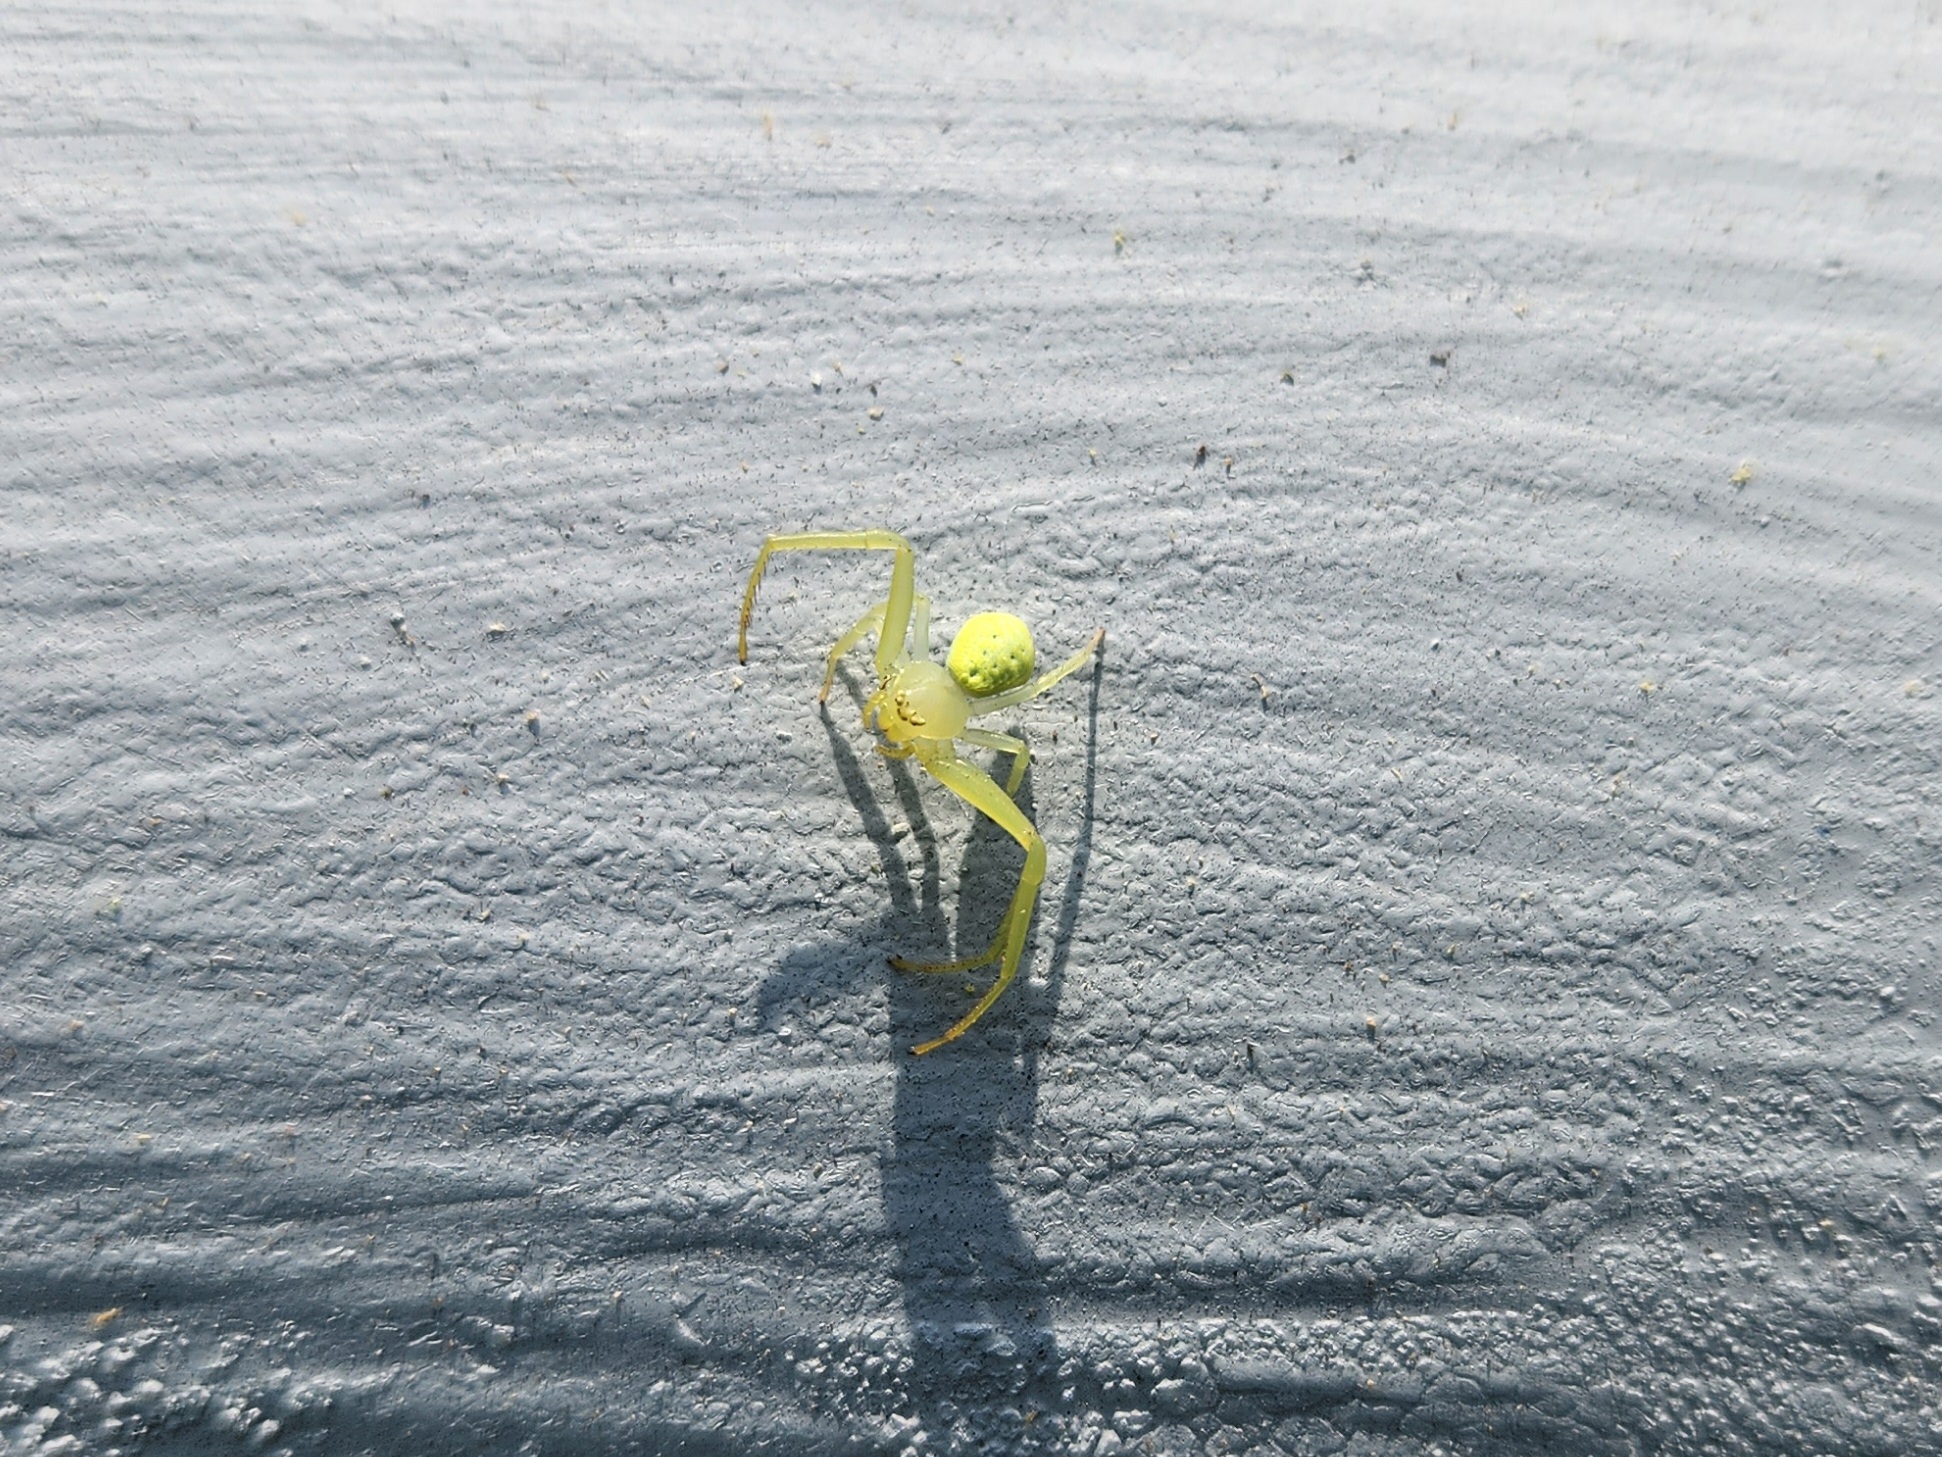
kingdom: Animalia
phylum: Arthropoda
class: Arachnida
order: Araneae
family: Thomisidae
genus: Misumessus
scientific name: Misumessus oblongus
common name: American green crab spider
